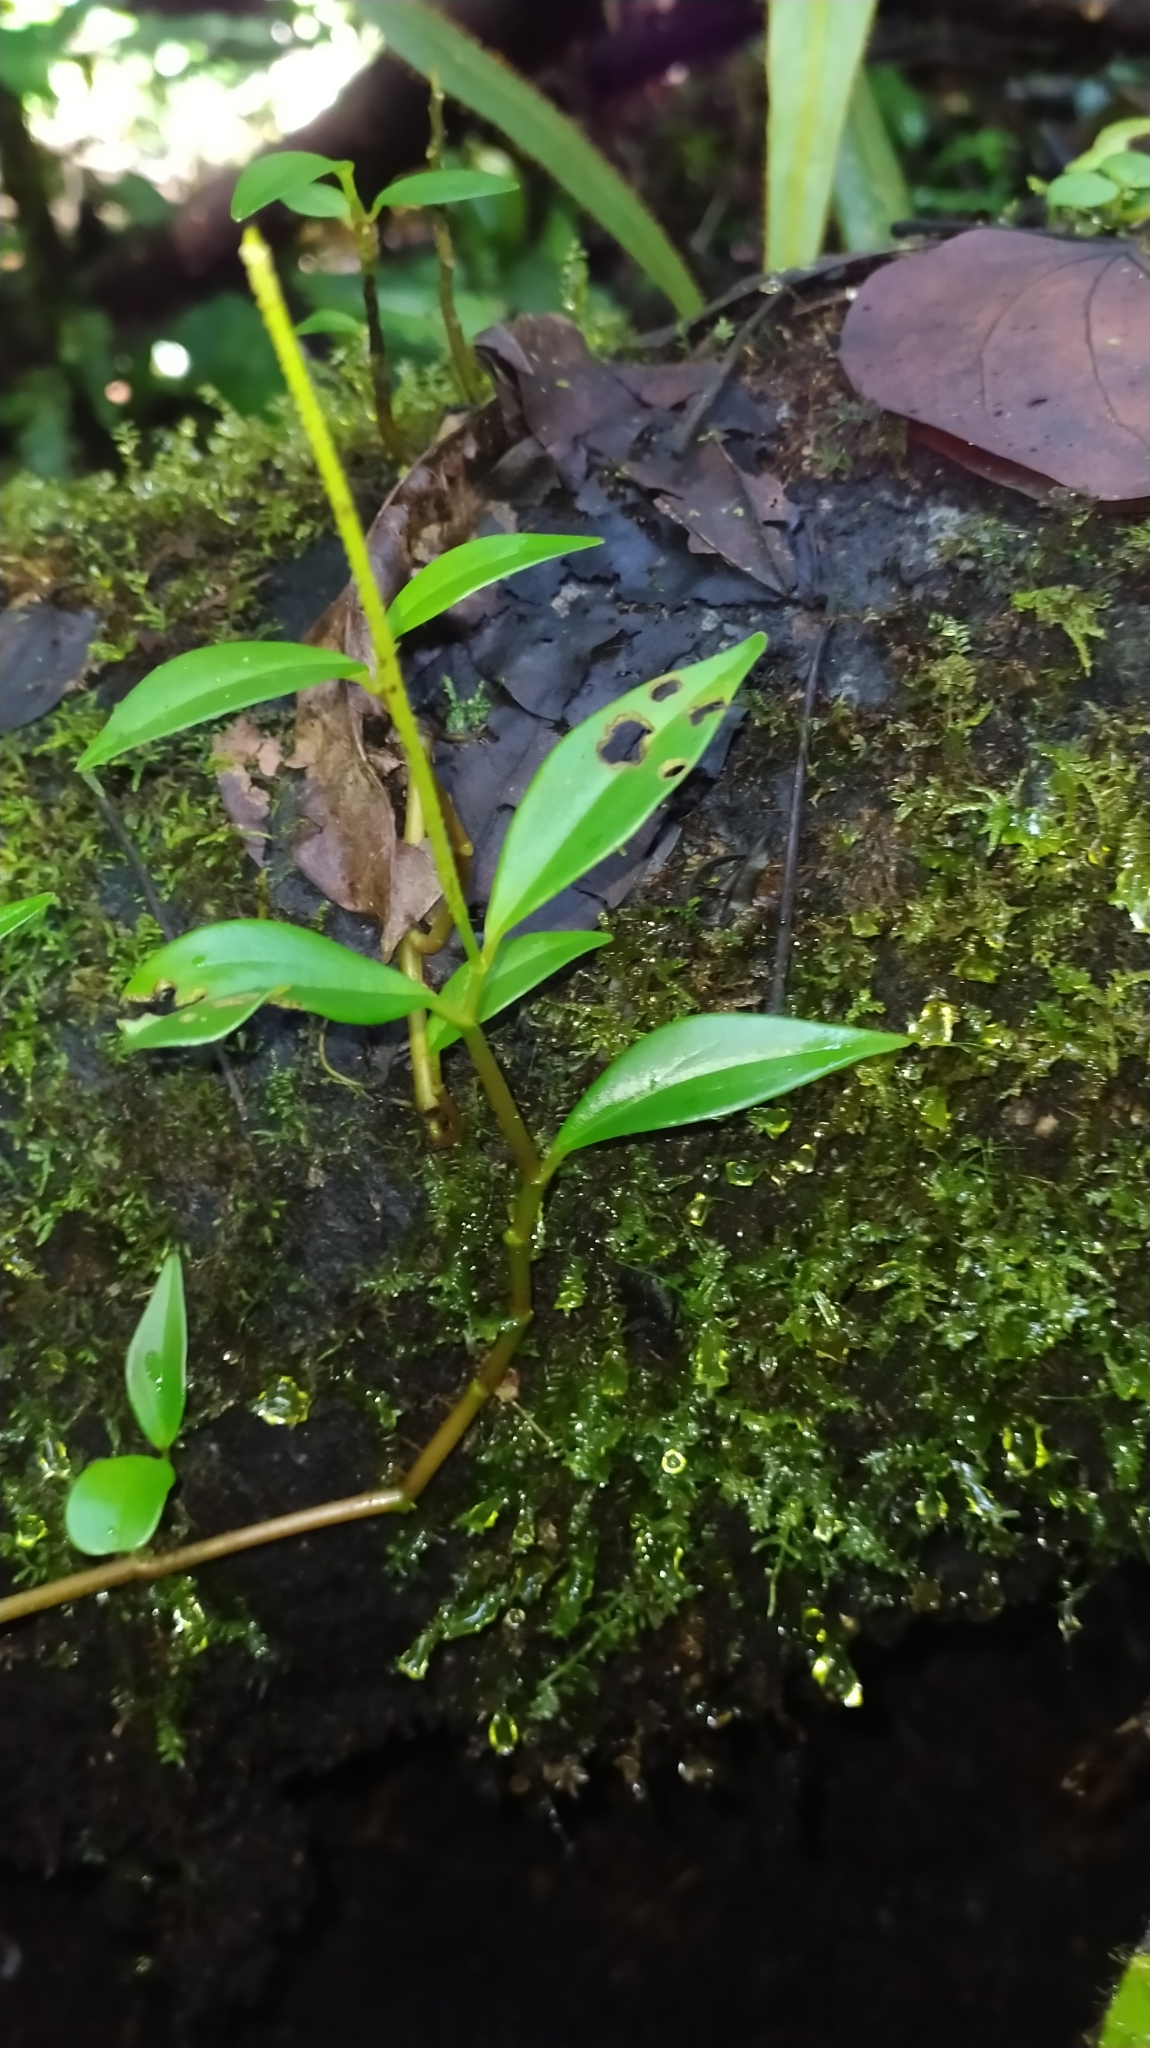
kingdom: Plantae
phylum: Tracheophyta
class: Magnoliopsida
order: Piperales
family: Piperaceae
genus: Peperomia
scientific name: Peperomia glabella
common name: Cypress peperomia
